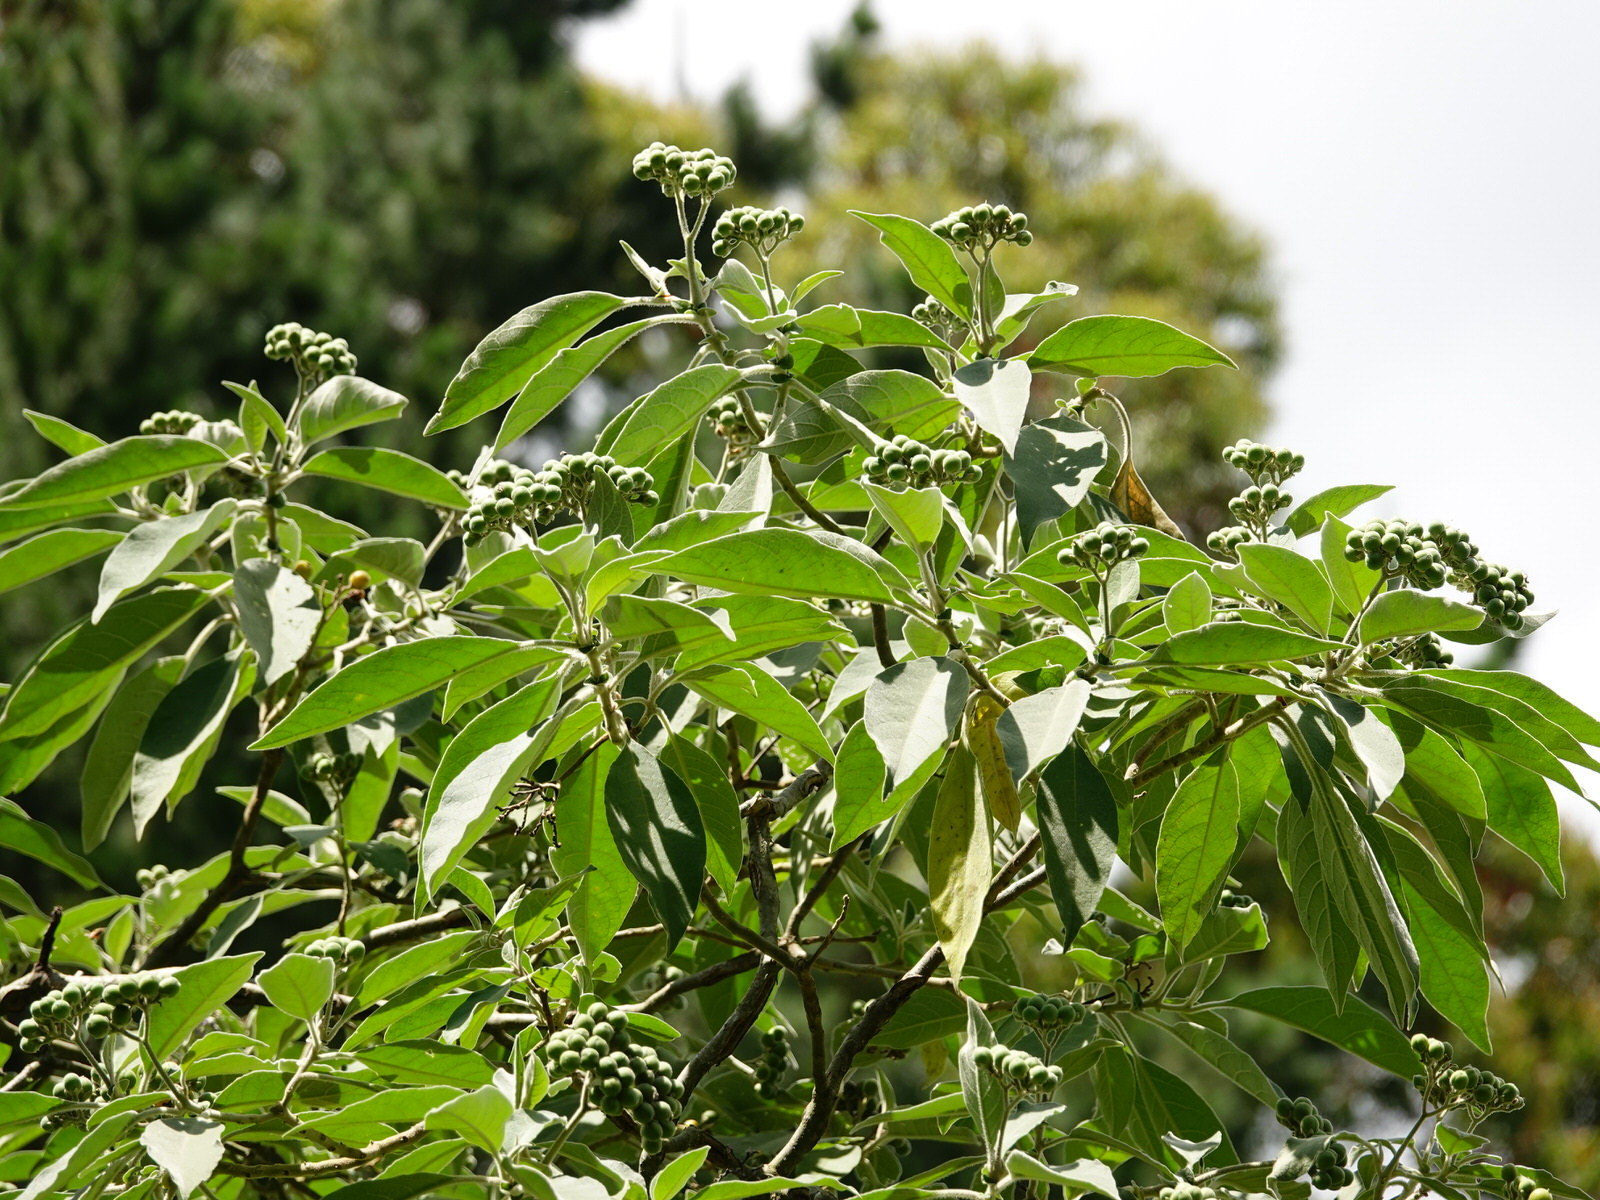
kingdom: Plantae
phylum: Tracheophyta
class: Magnoliopsida
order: Solanales
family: Solanaceae
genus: Solanum
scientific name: Solanum mauritianum
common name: Earleaf nightshade
